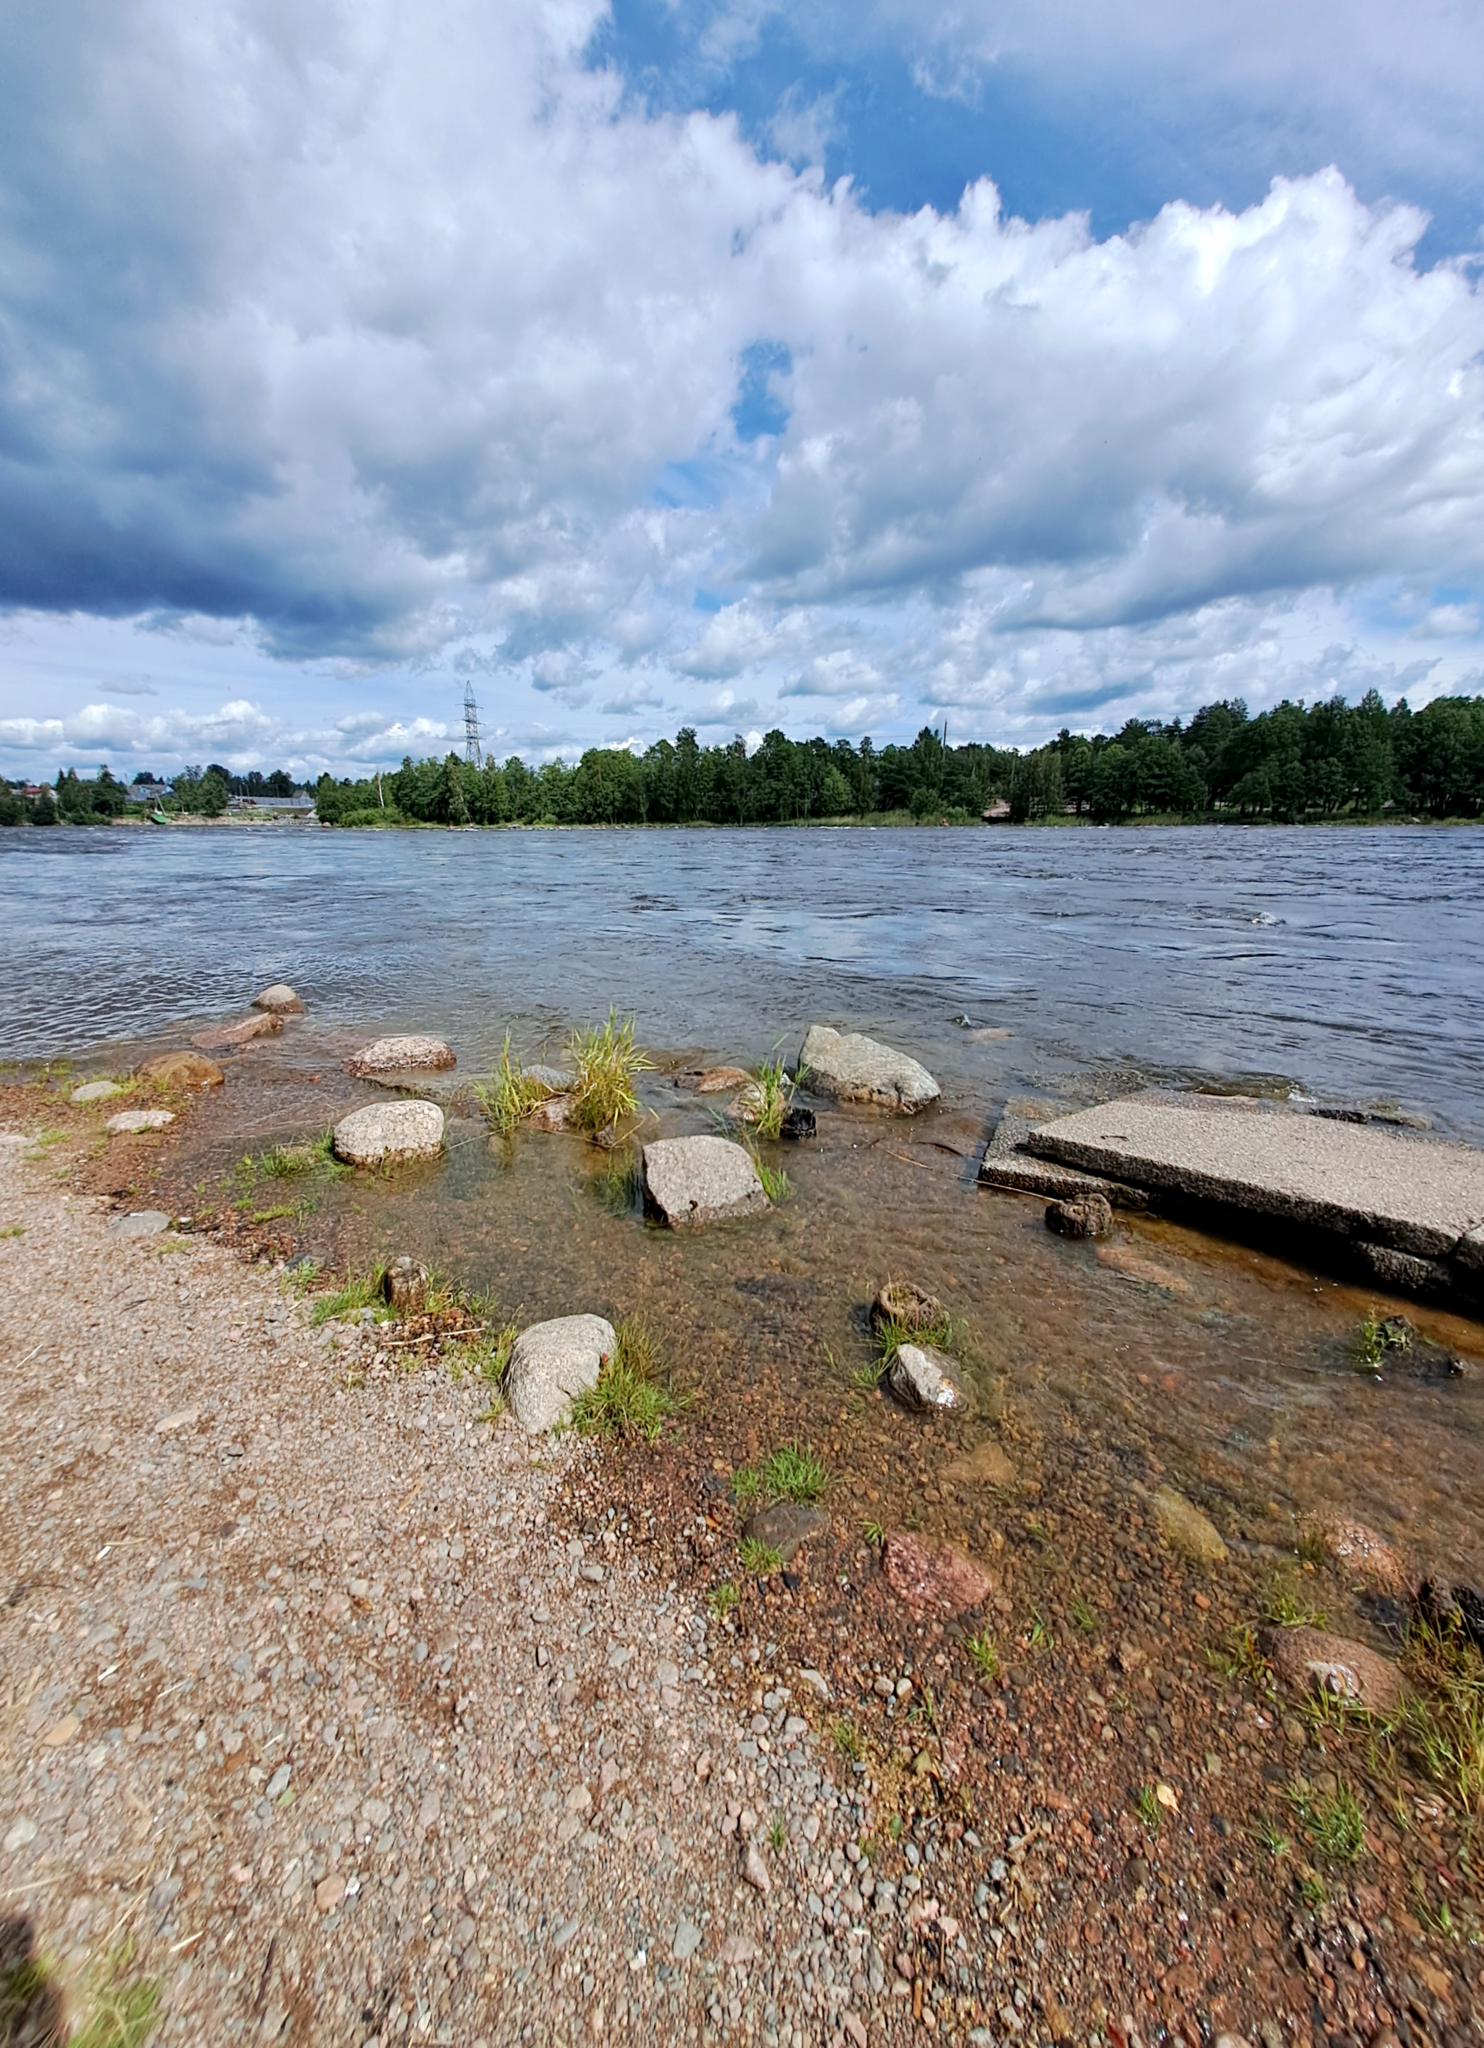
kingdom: Chromista
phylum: Ochrophyta
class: Chrysophyceae
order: Chromulinales
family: Dinobryaceae
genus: Dinobryon
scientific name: Dinobryon divergens
